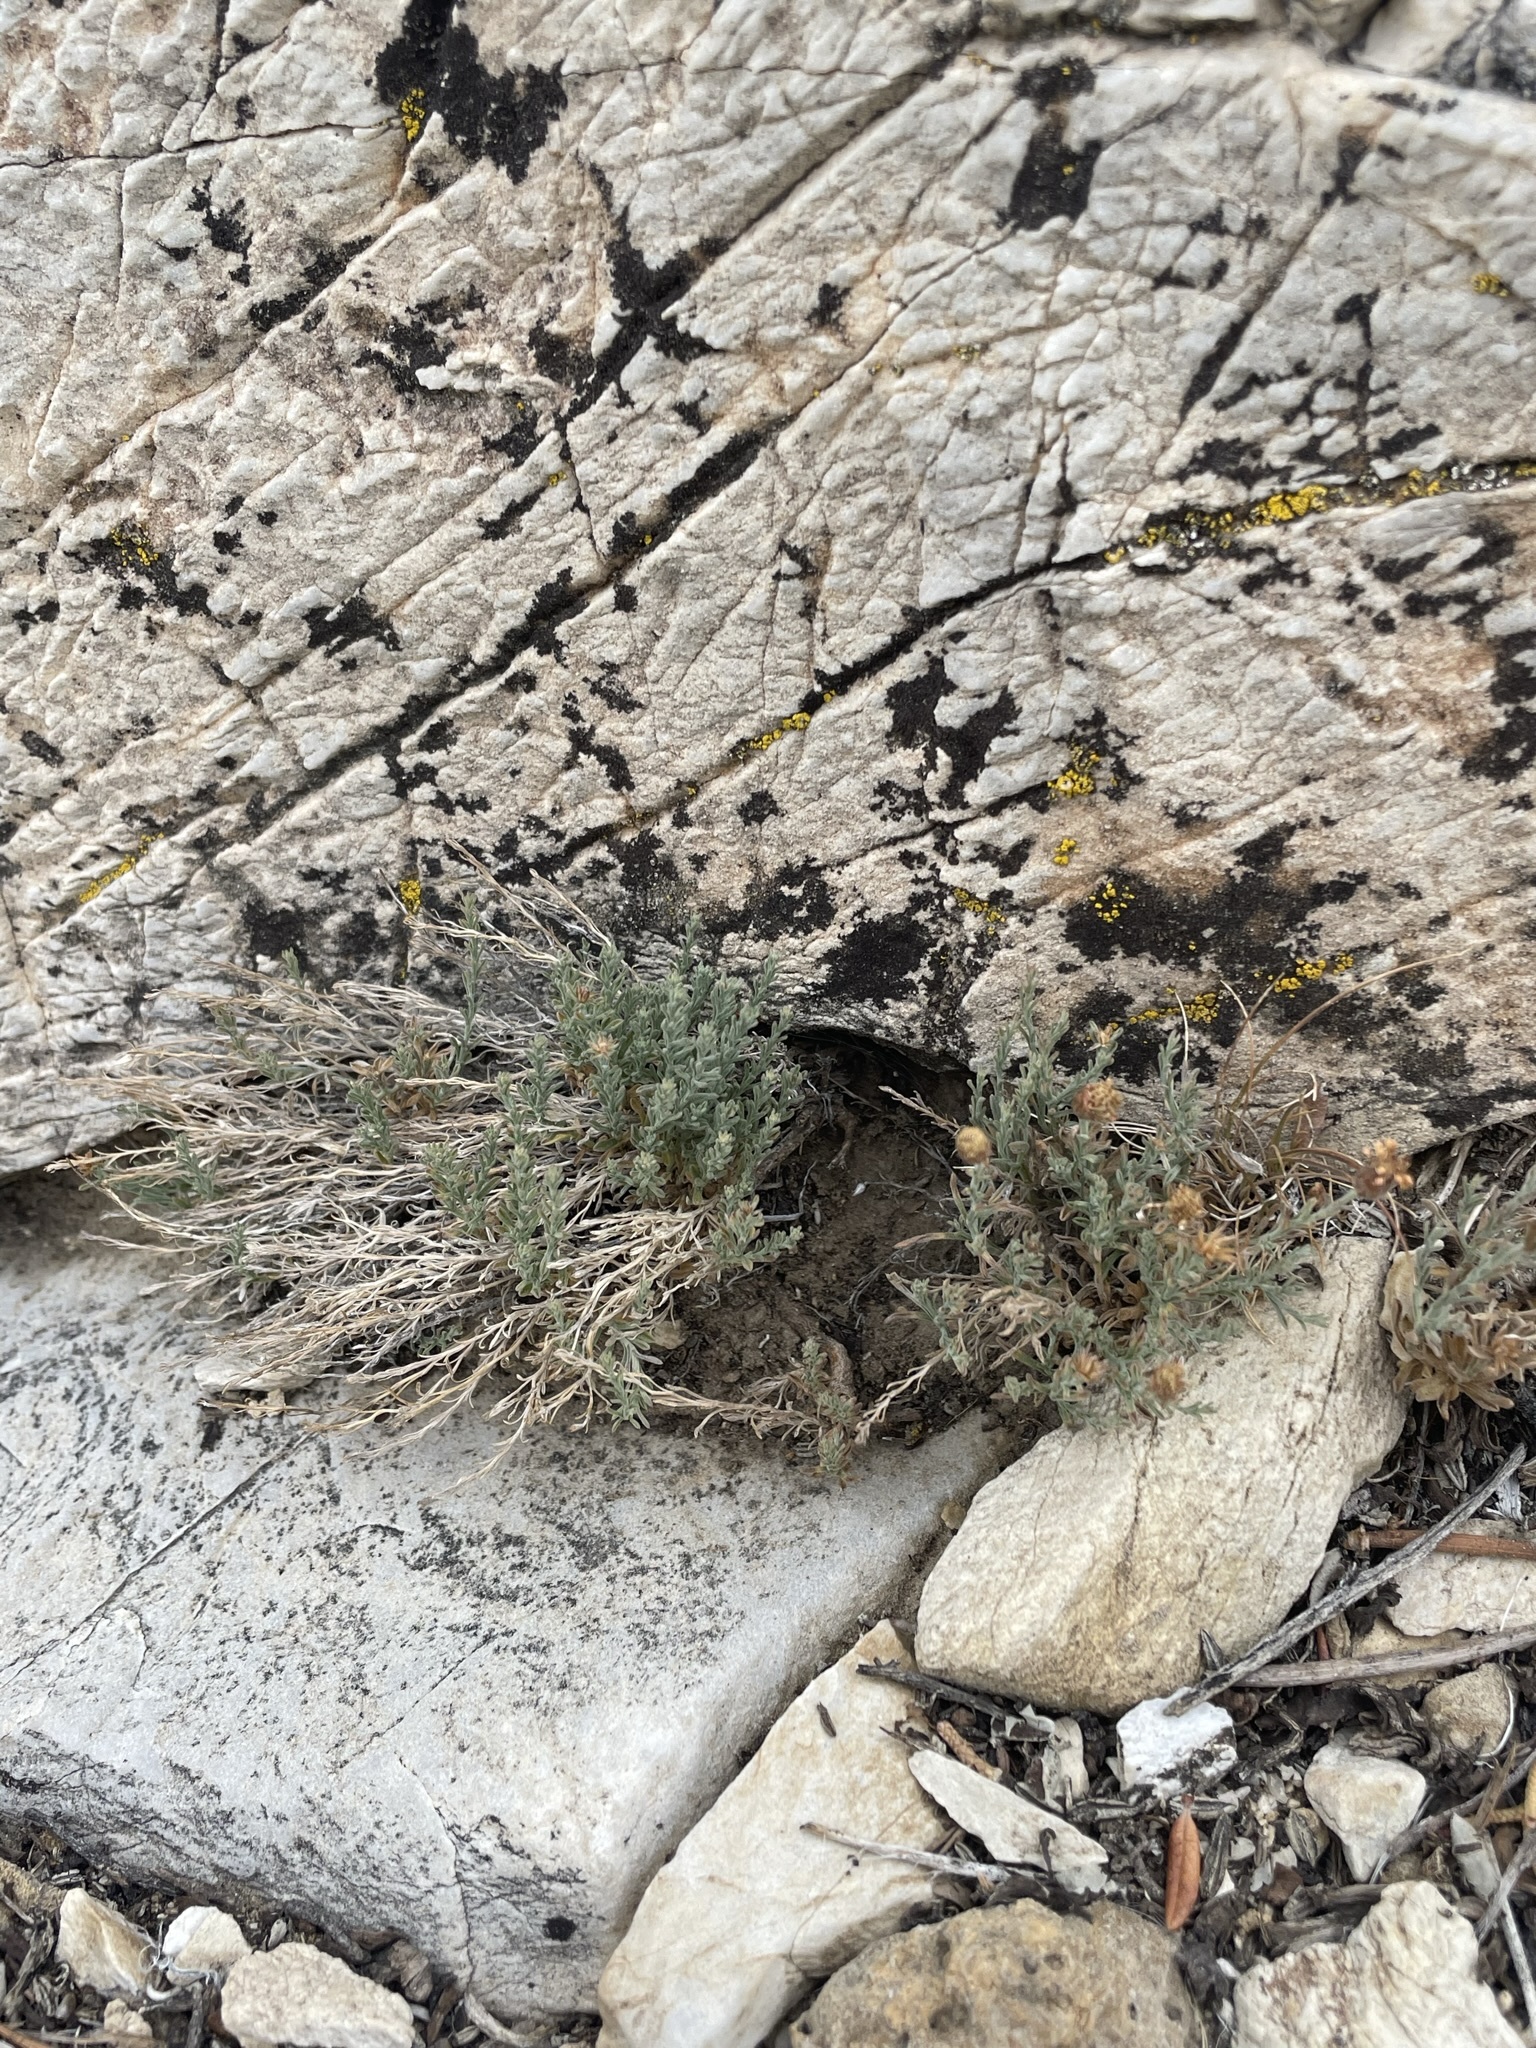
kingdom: Plantae
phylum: Tracheophyta
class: Magnoliopsida
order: Asterales
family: Asteraceae
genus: Chaetopappa
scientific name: Chaetopappa ericoides
